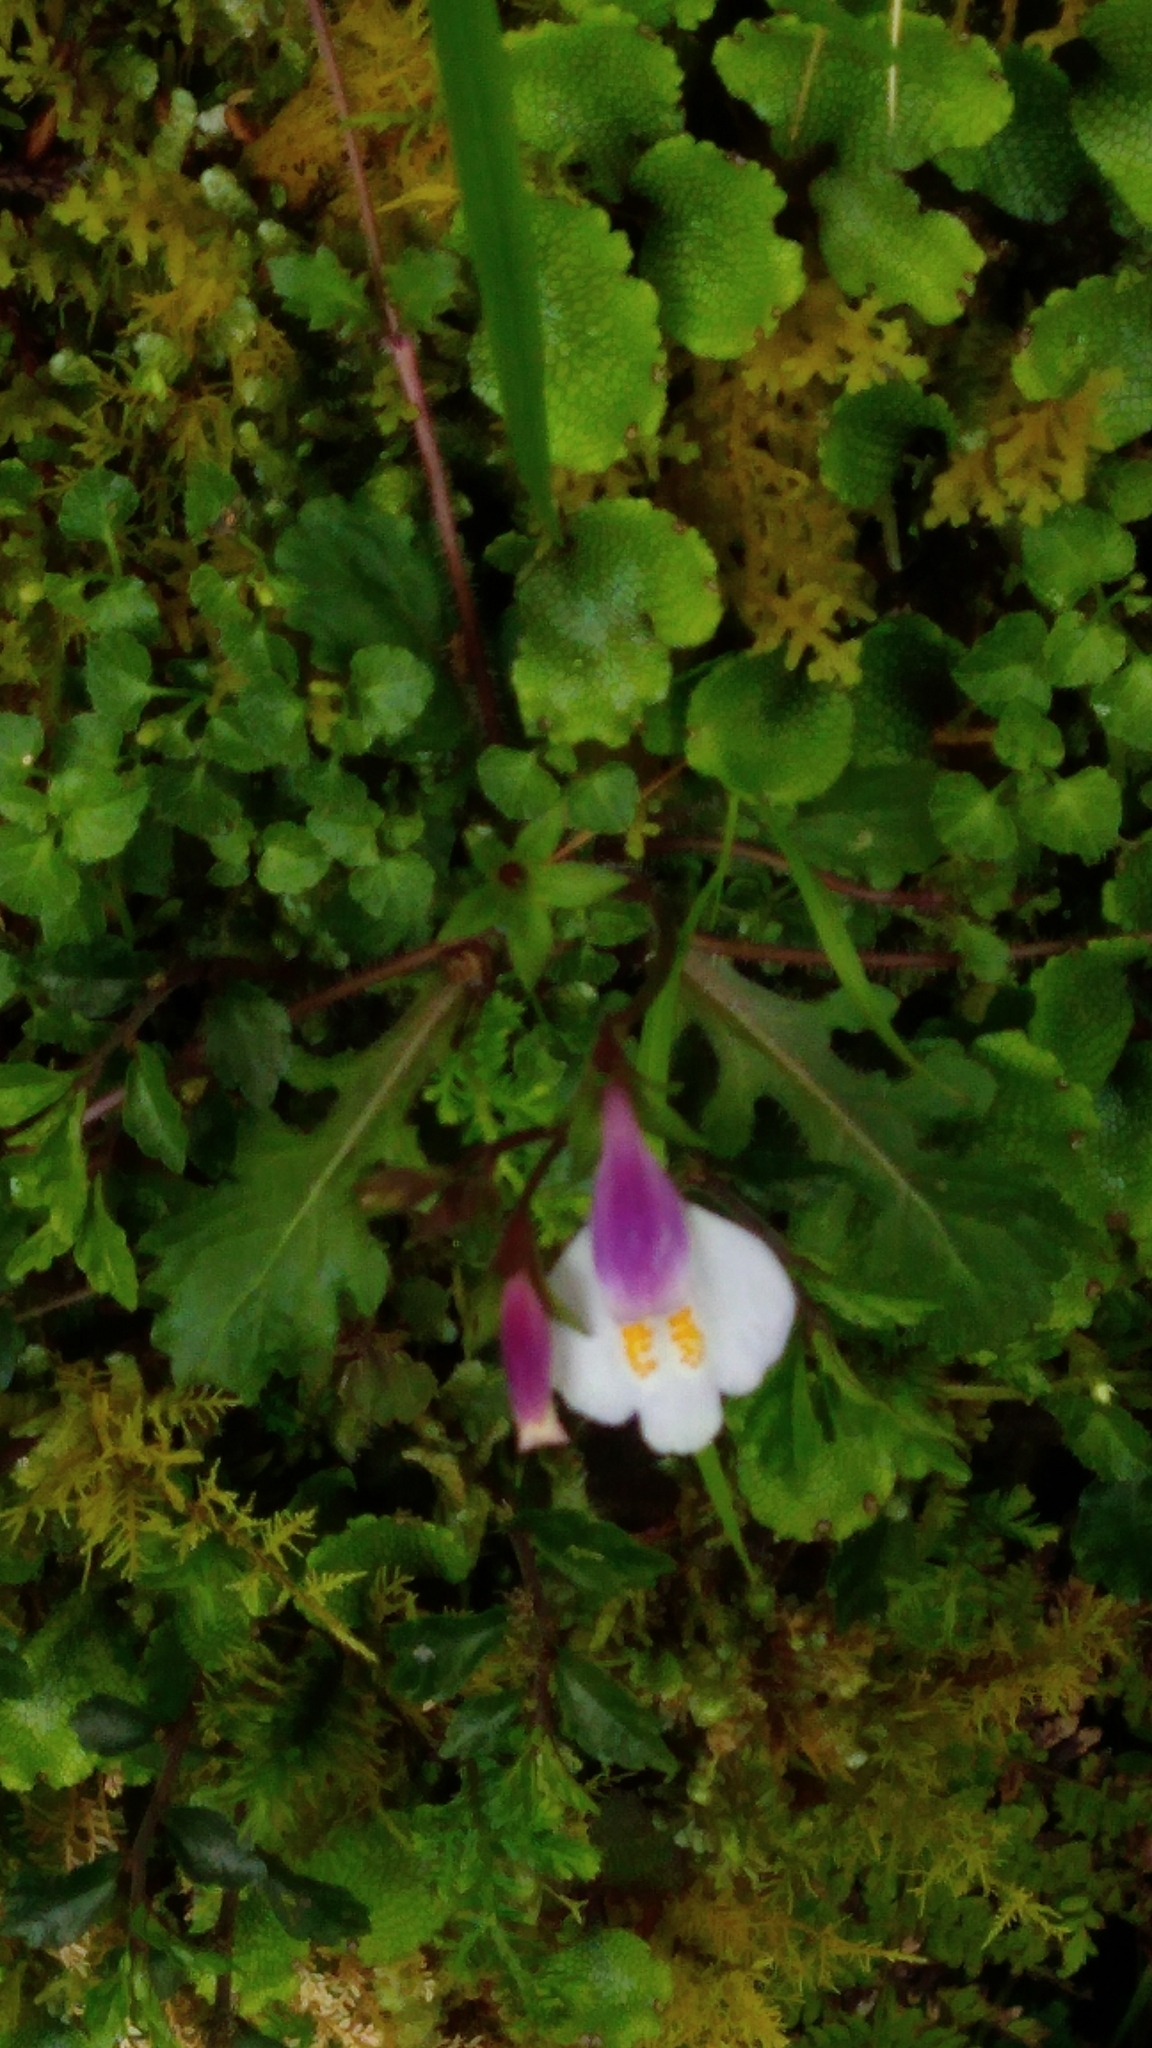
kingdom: Plantae
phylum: Tracheophyta
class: Magnoliopsida
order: Lamiales
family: Mazaceae
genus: Mazus
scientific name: Mazus miquelii
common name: Miquel's mazus
